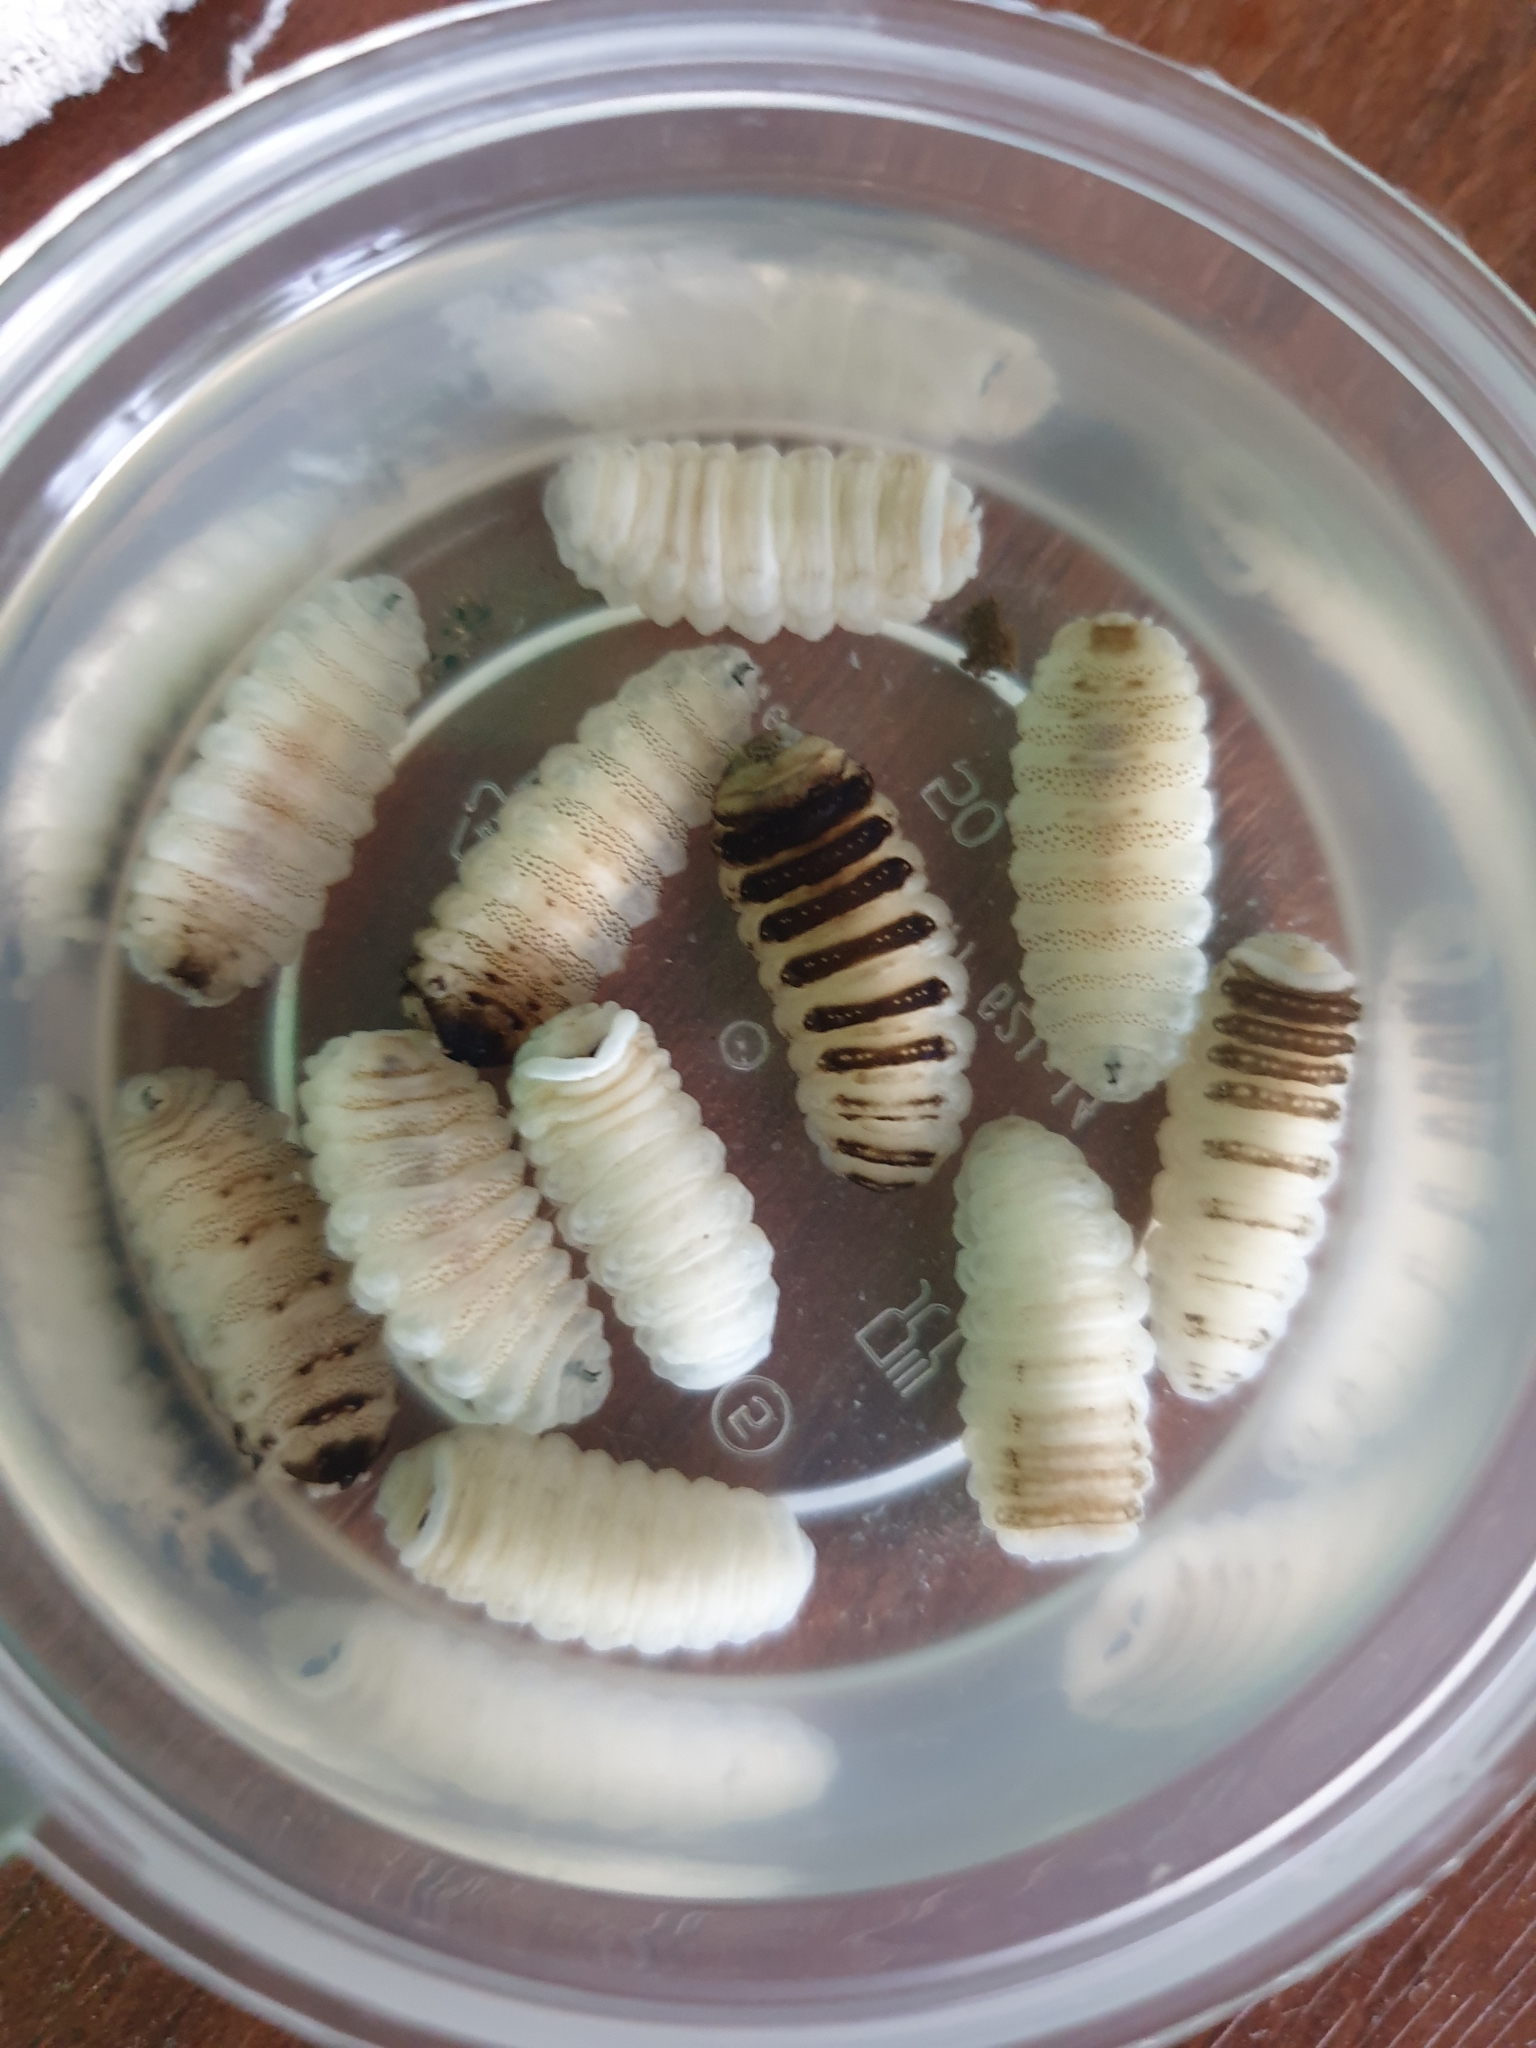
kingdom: Animalia
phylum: Arthropoda
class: Insecta
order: Diptera
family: Oestridae
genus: Oestrus
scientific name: Oestrus ovis
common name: Sheep botfly
